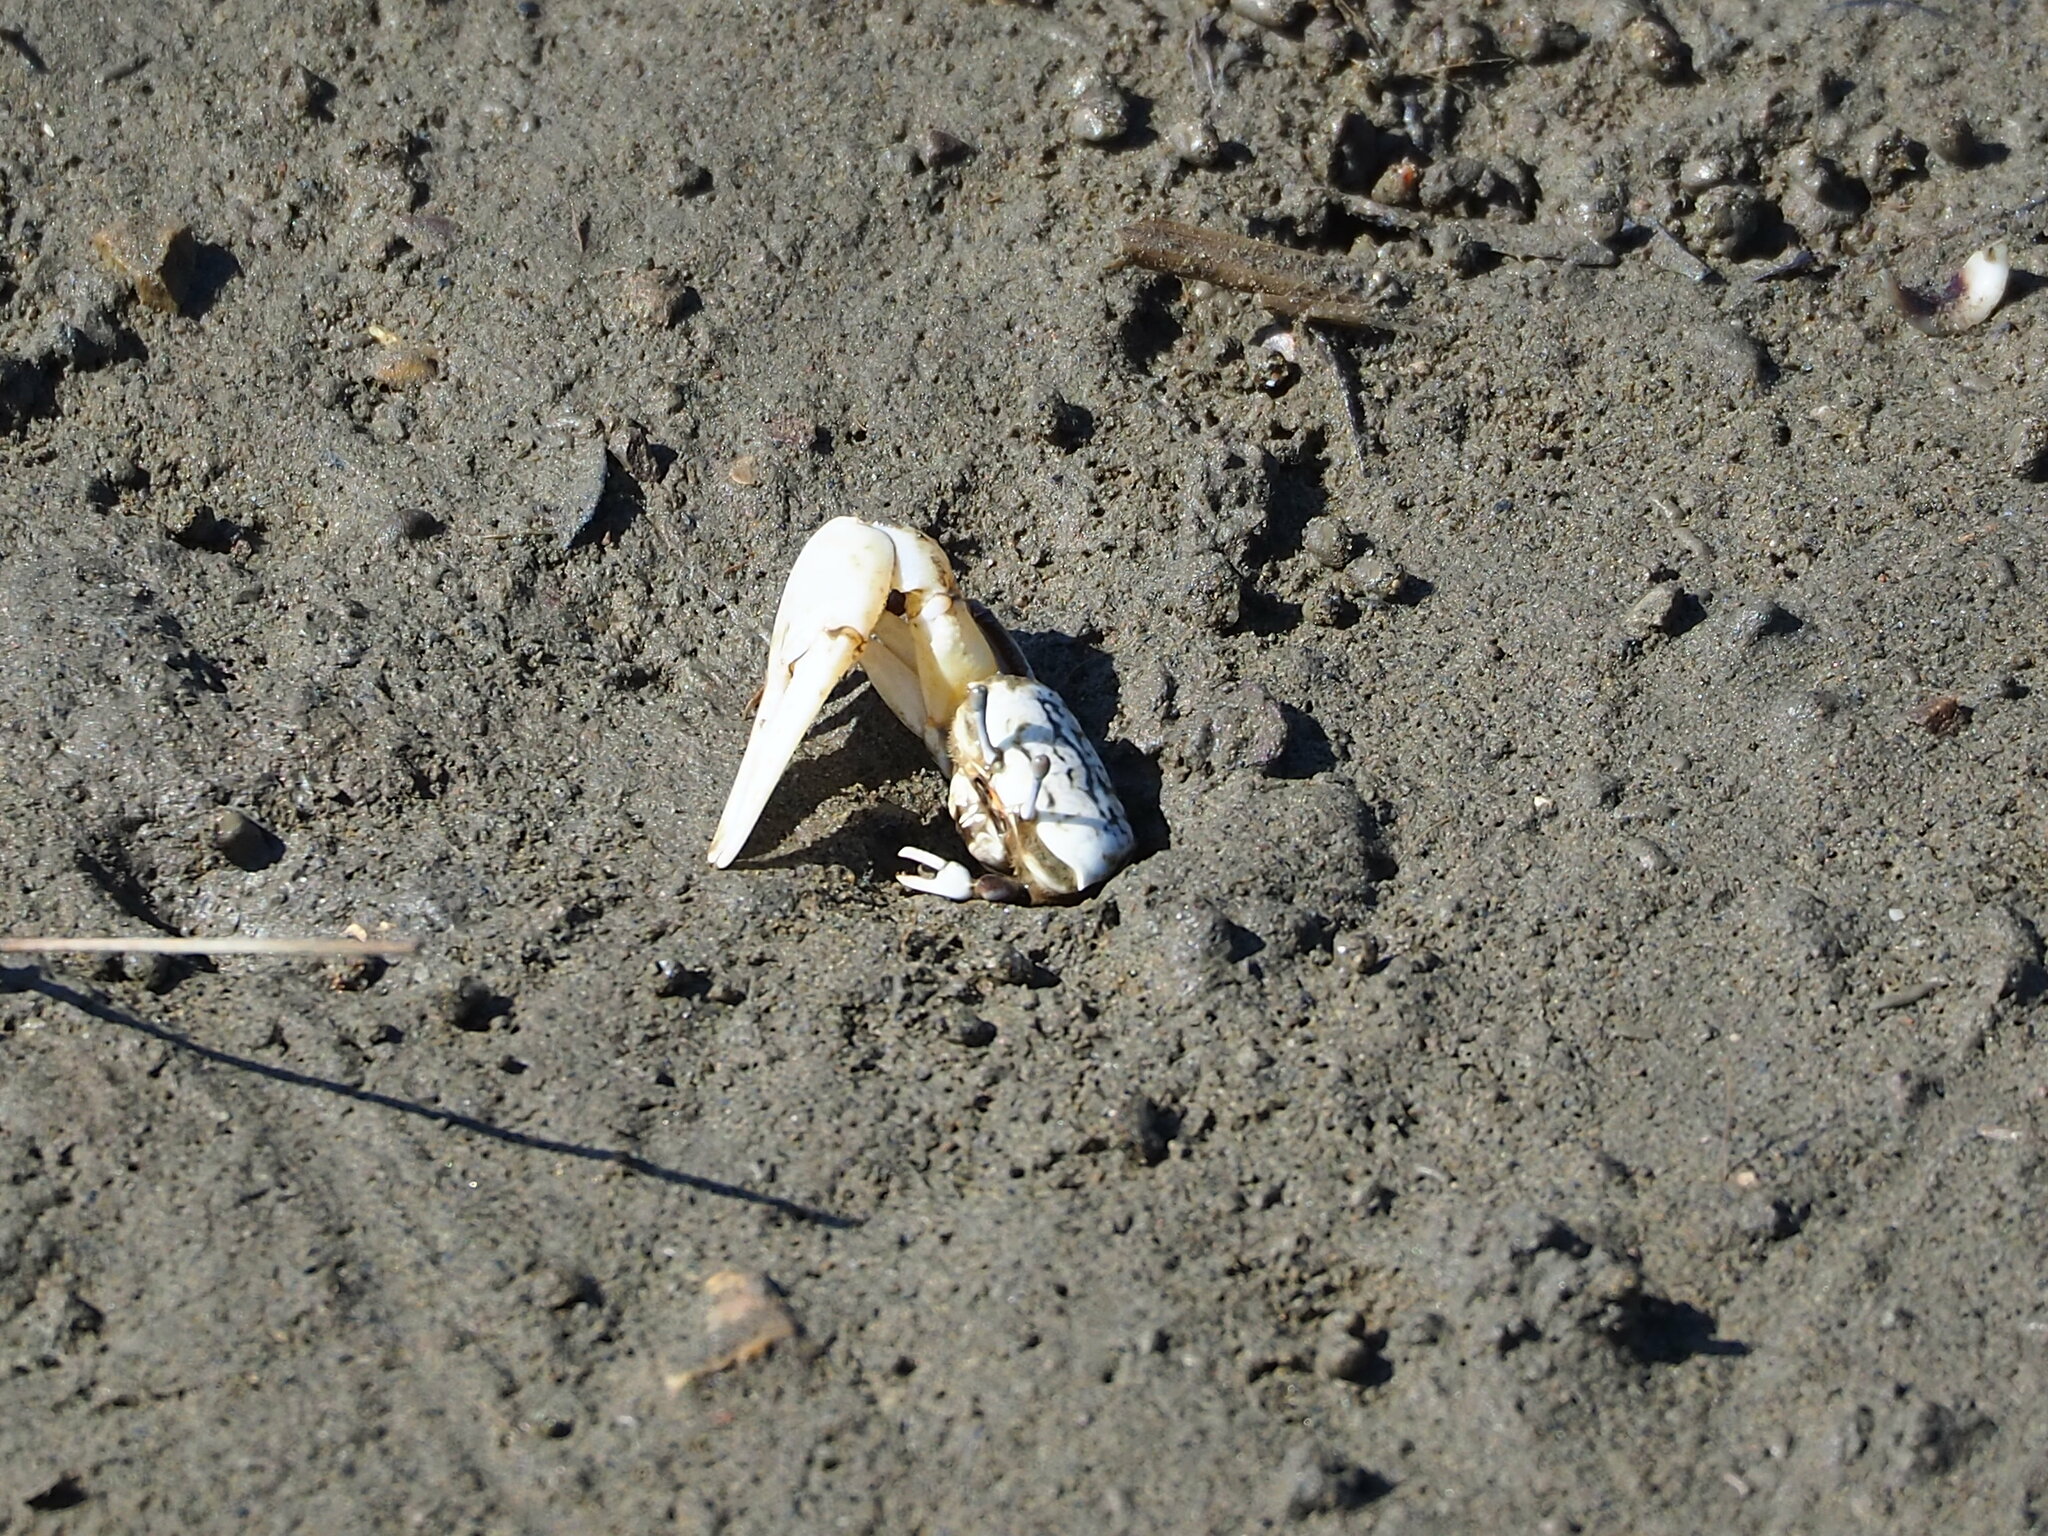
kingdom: Animalia
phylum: Arthropoda
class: Malacostraca
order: Decapoda
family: Ocypodidae
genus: Austruca
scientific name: Austruca lactea
